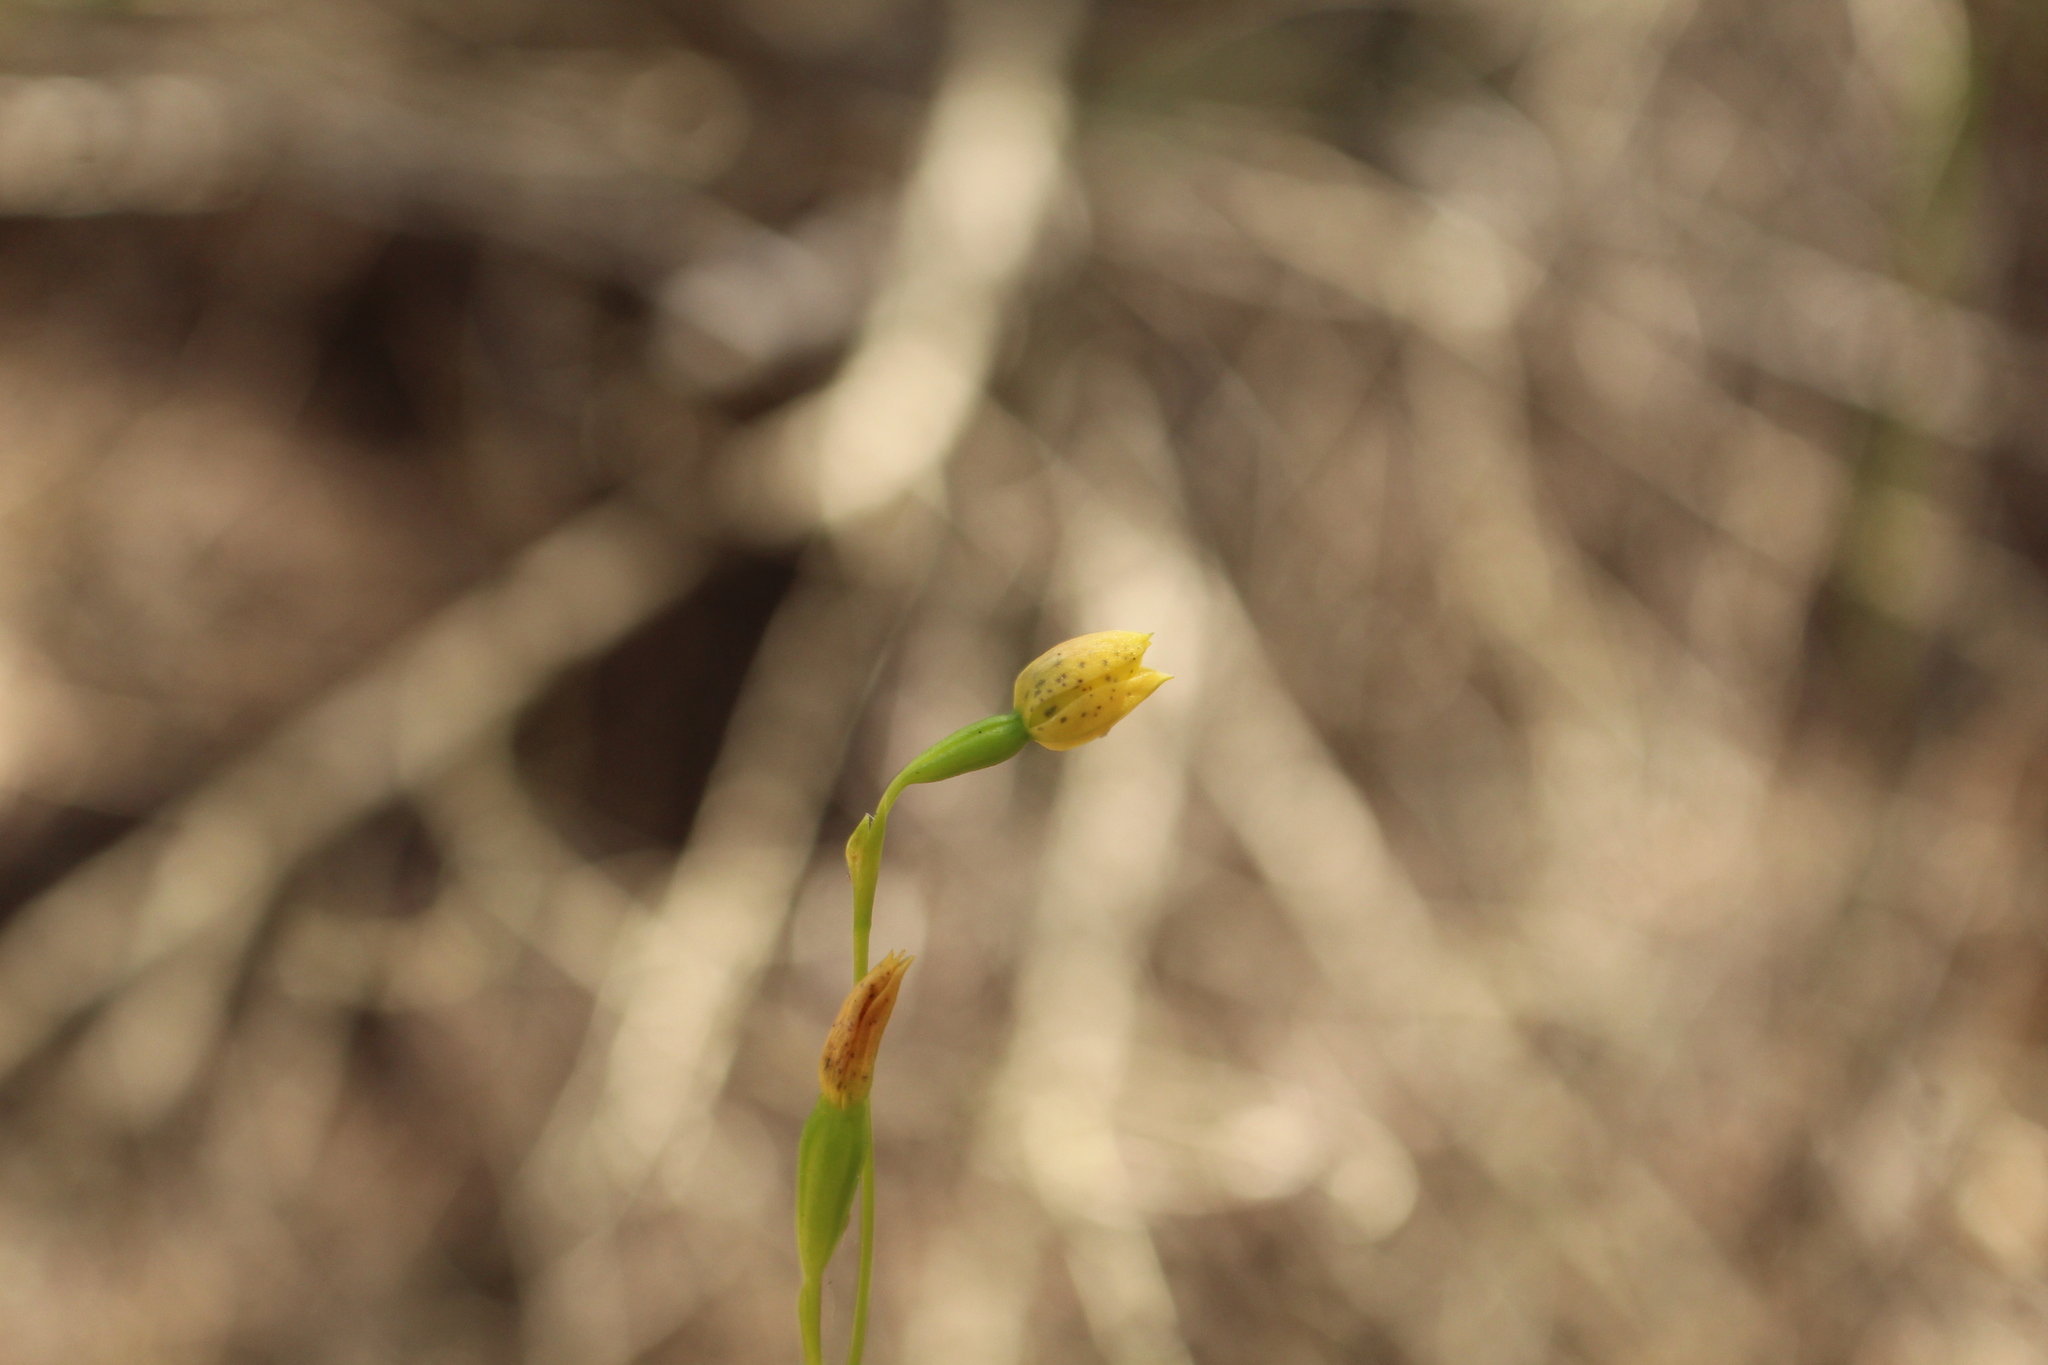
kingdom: Plantae
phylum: Tracheophyta
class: Liliopsida
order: Asparagales
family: Orchidaceae
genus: Thelymitra
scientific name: Thelymitra tigrina
